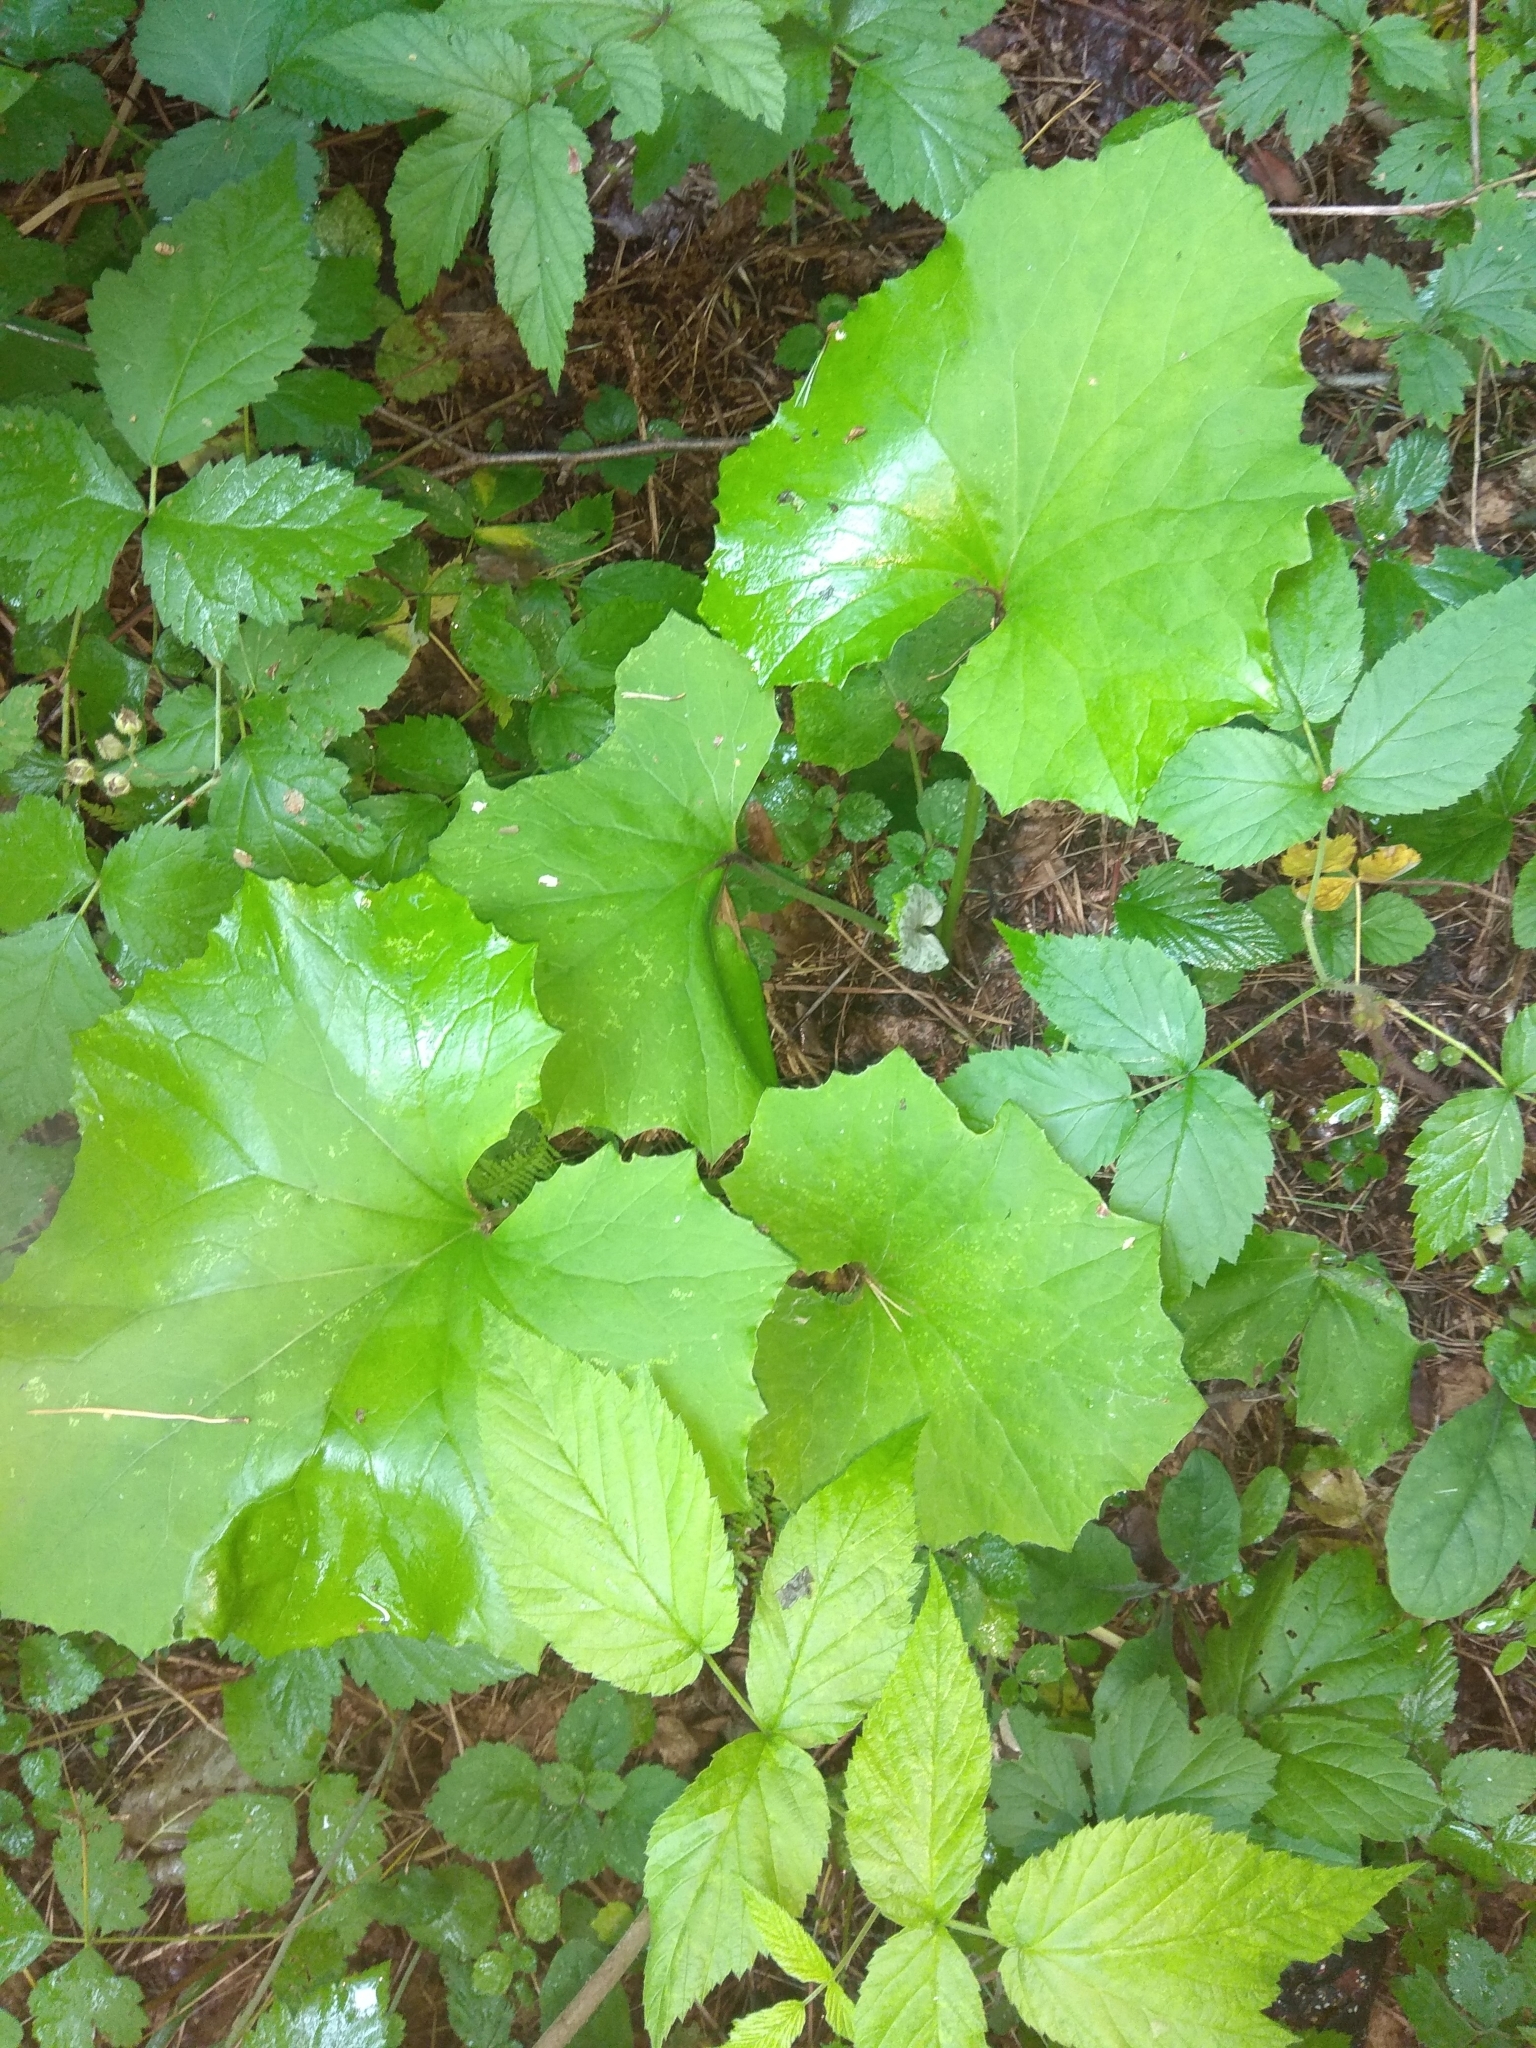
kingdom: Plantae
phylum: Tracheophyta
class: Magnoliopsida
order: Asterales
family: Asteraceae
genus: Tussilago
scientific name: Tussilago farfara
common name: Coltsfoot
